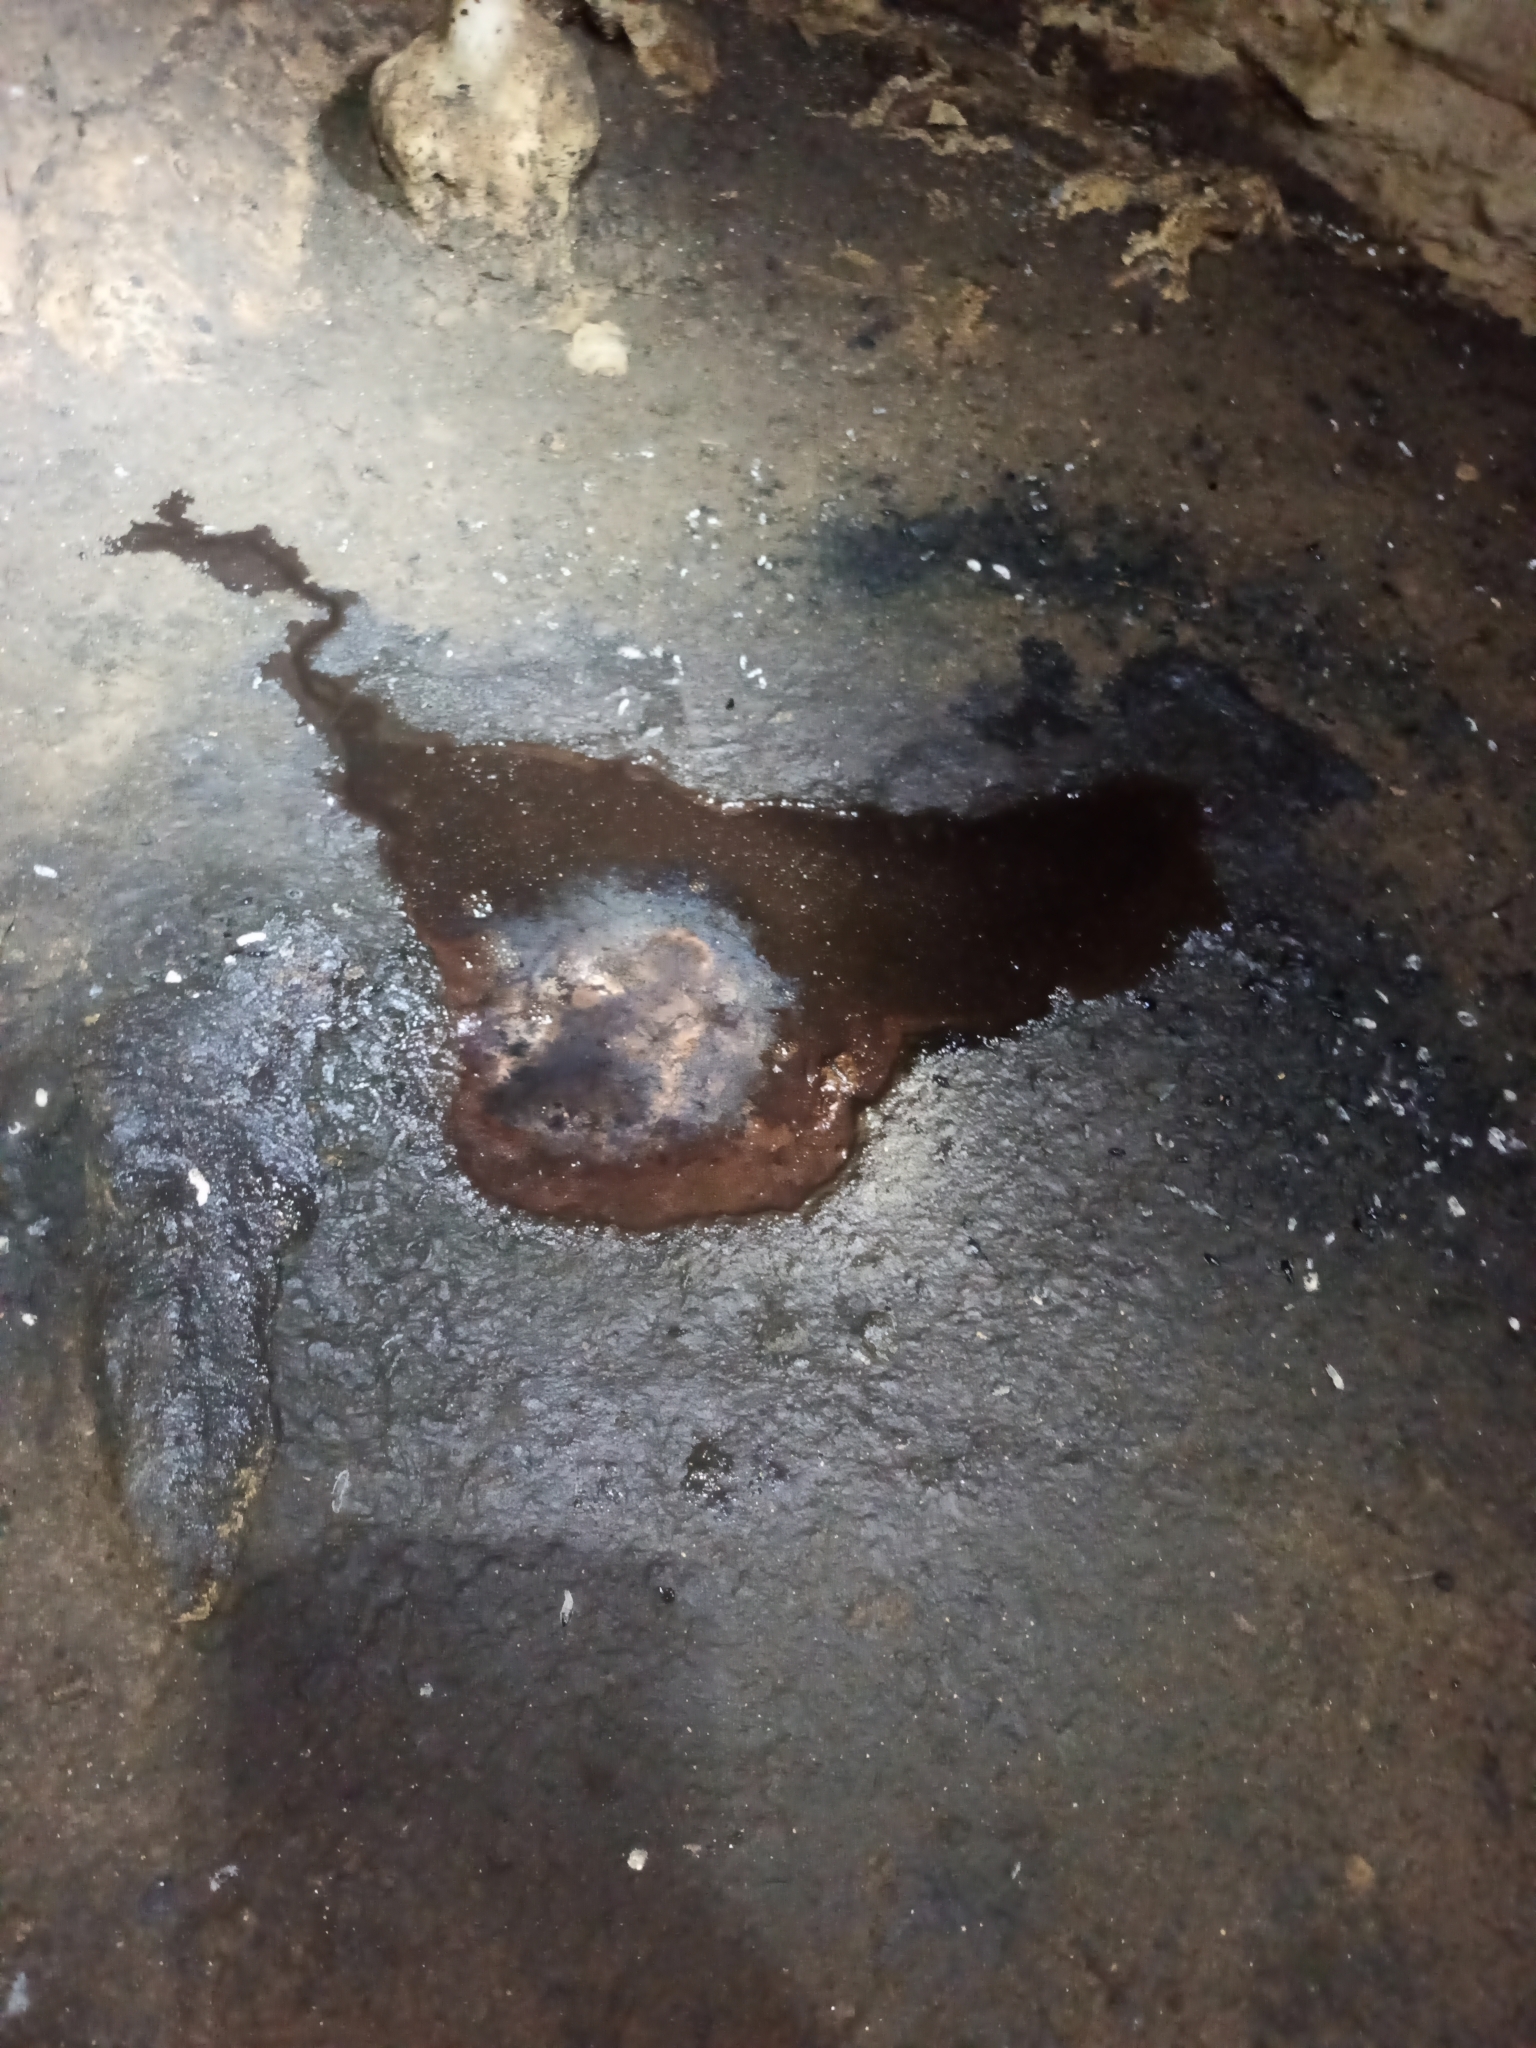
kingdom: Animalia
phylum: Chordata
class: Mammalia
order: Chiroptera
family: Phyllostomidae
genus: Desmodus
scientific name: Desmodus rotundus
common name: Common vampire bat
